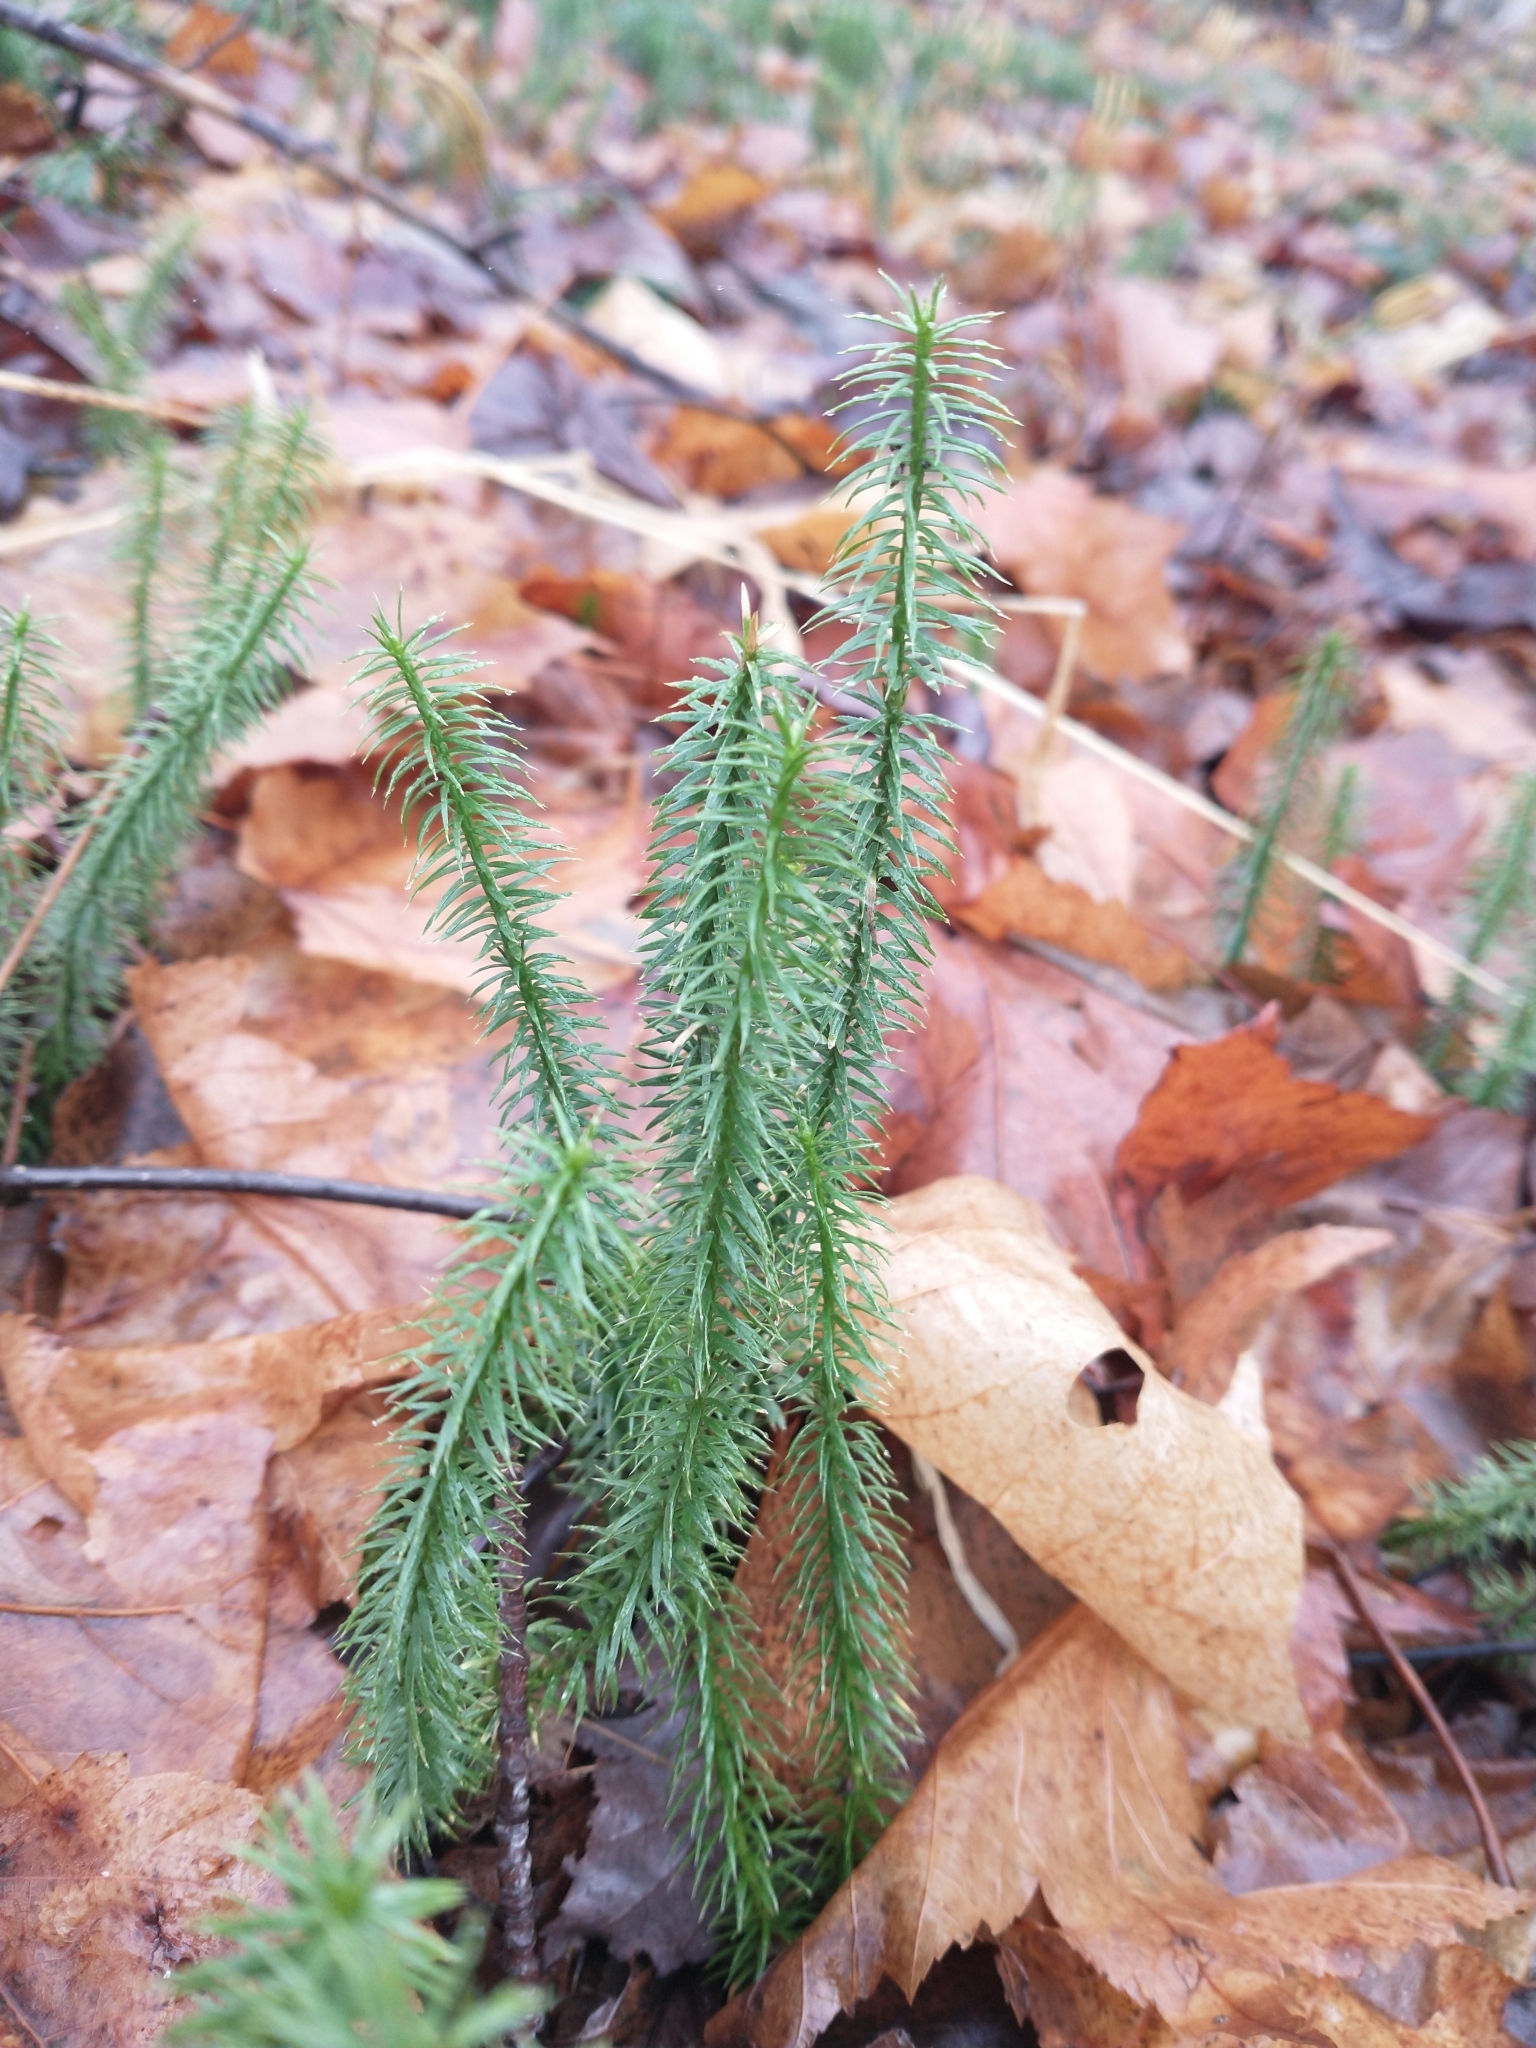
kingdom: Plantae
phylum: Tracheophyta
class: Lycopodiopsida
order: Lycopodiales
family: Lycopodiaceae
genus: Spinulum
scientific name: Spinulum annotinum
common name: Interrupted club-moss
